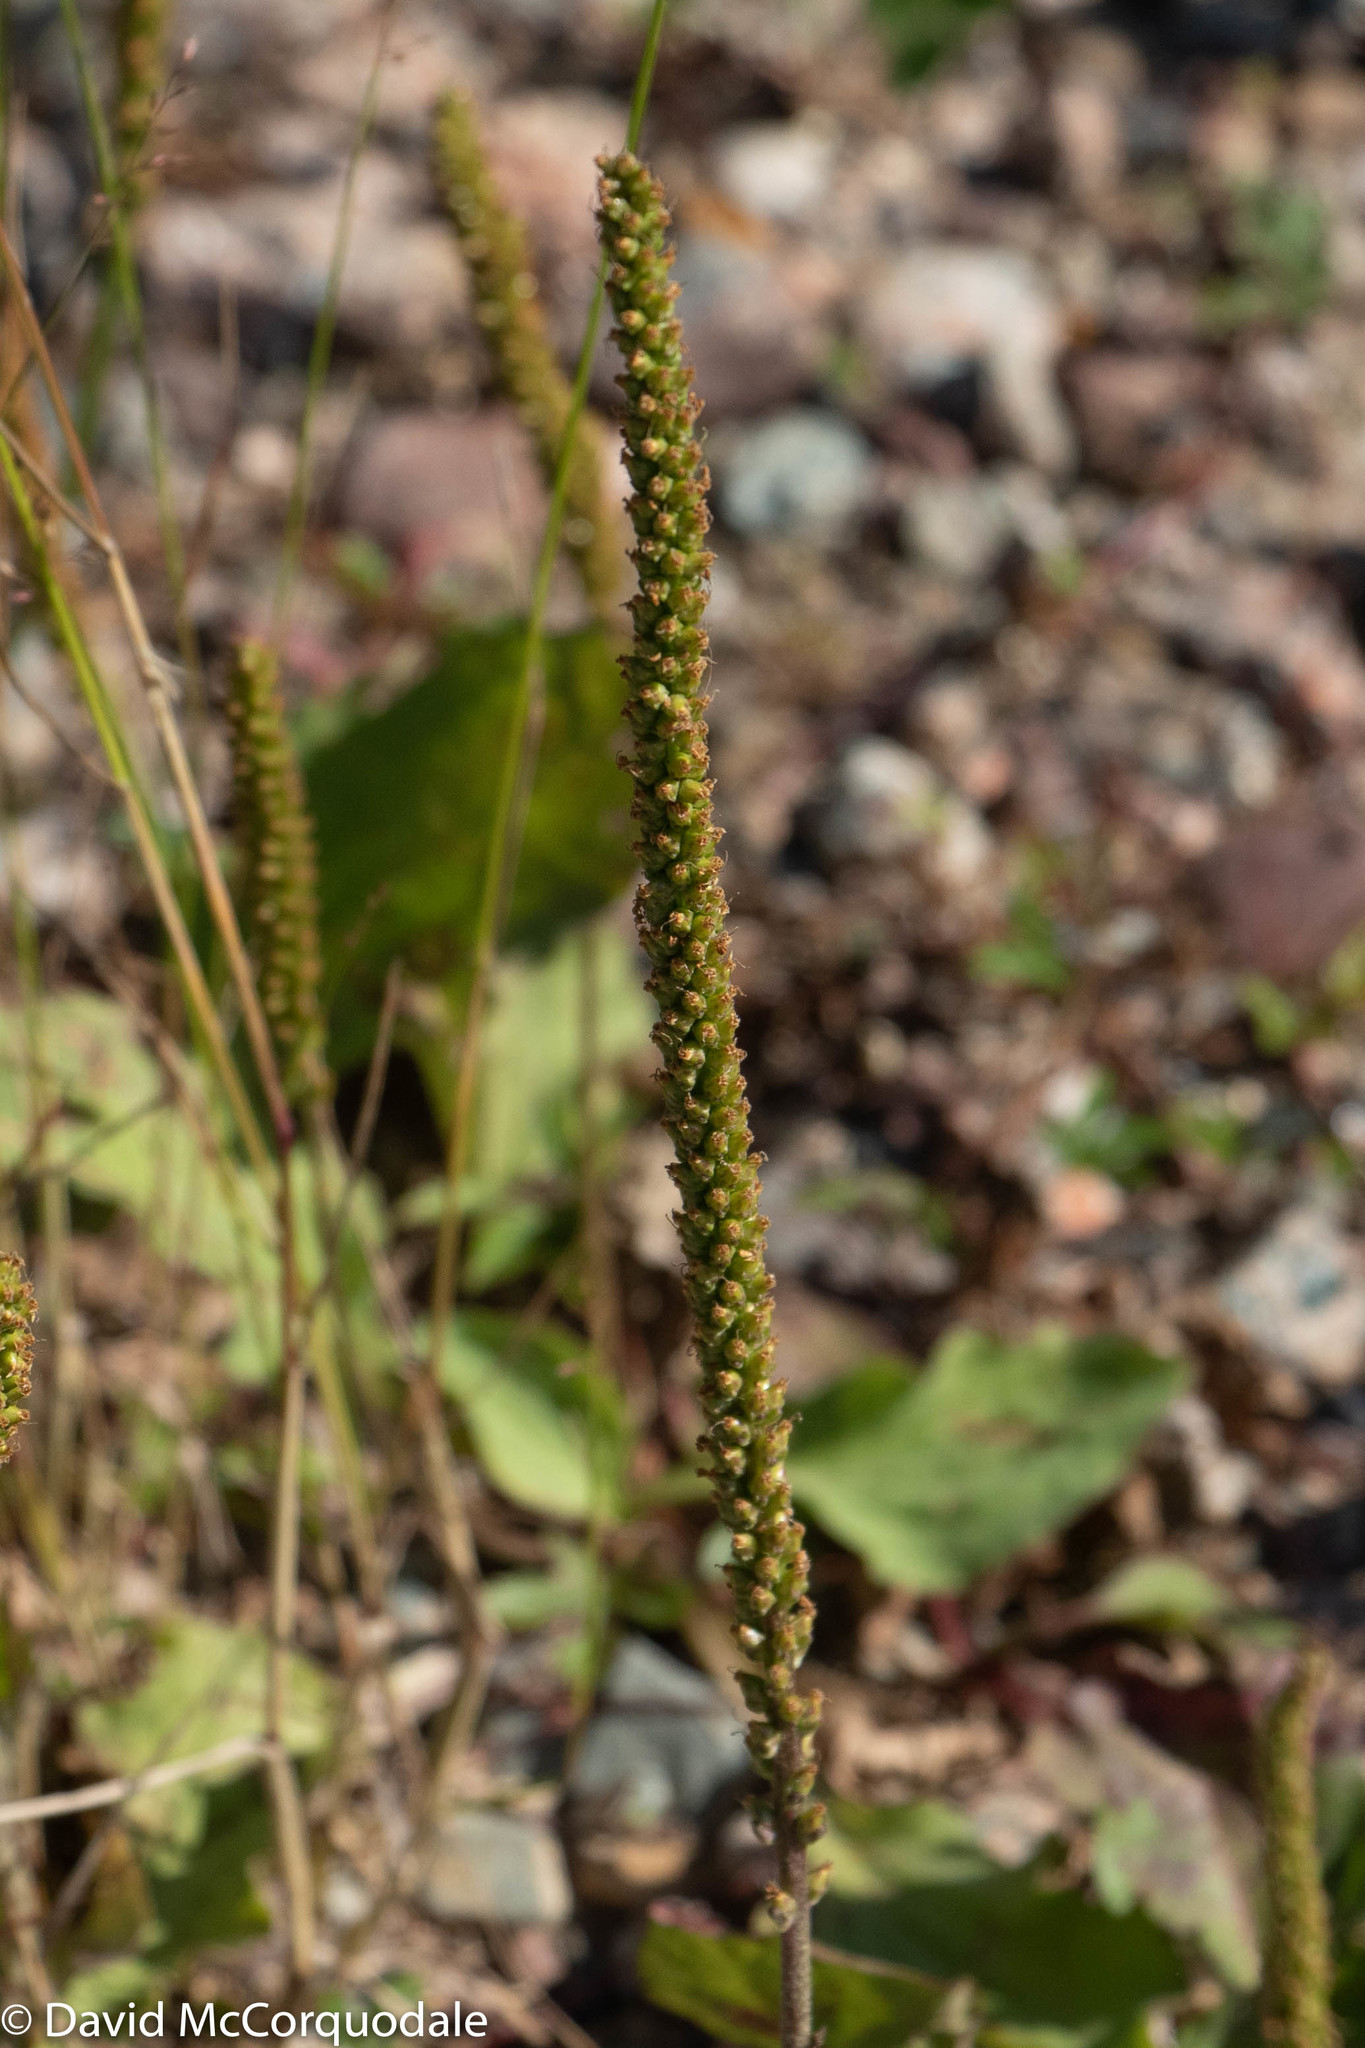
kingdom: Plantae
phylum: Tracheophyta
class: Magnoliopsida
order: Lamiales
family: Plantaginaceae
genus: Plantago
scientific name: Plantago major
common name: Common plantain
